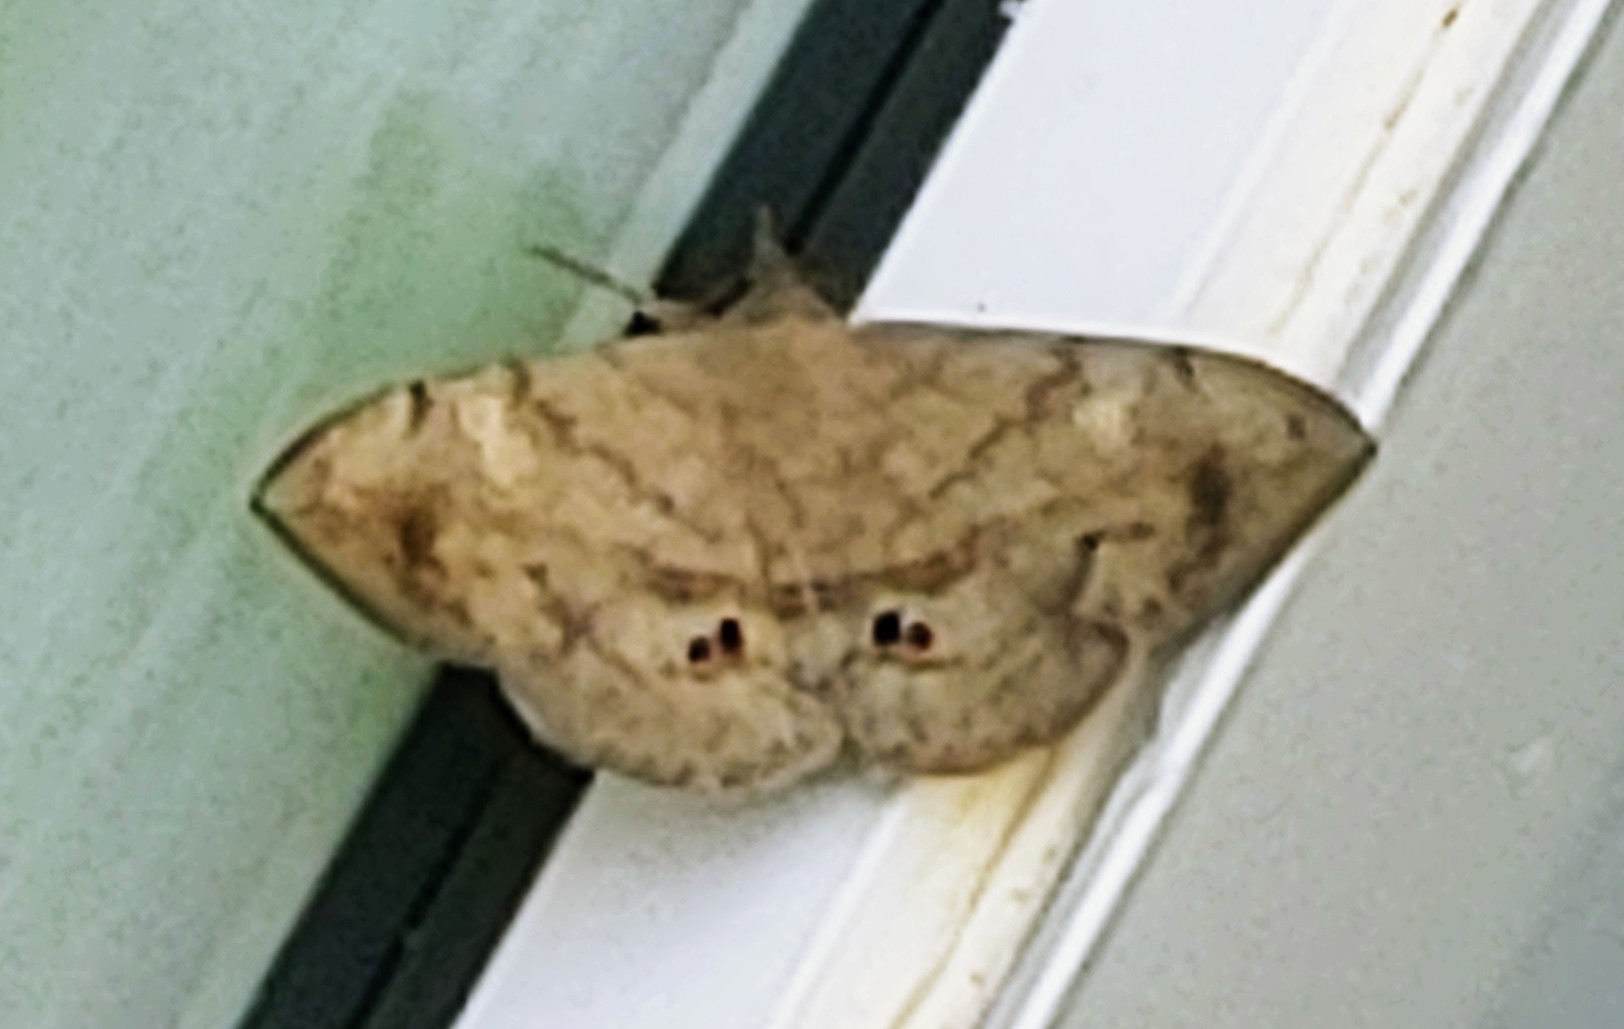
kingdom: Animalia
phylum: Arthropoda
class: Insecta
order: Lepidoptera
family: Erebidae
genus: Anticarsia
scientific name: Anticarsia gemmatalis
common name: Cutworm moth
